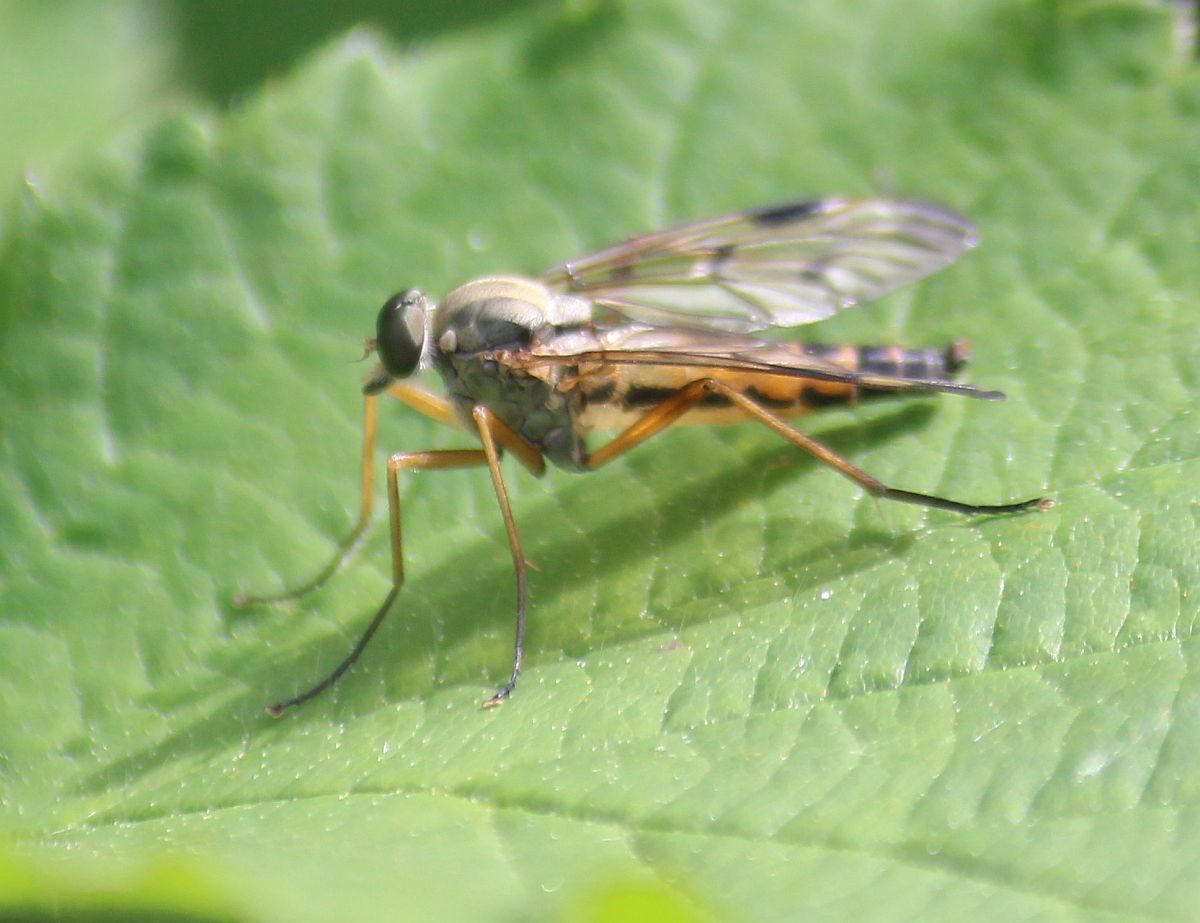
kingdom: Animalia
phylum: Arthropoda
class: Insecta
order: Diptera
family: Rhagionidae
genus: Rhagio
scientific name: Rhagio scolopacea
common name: Downlooker snipefly
